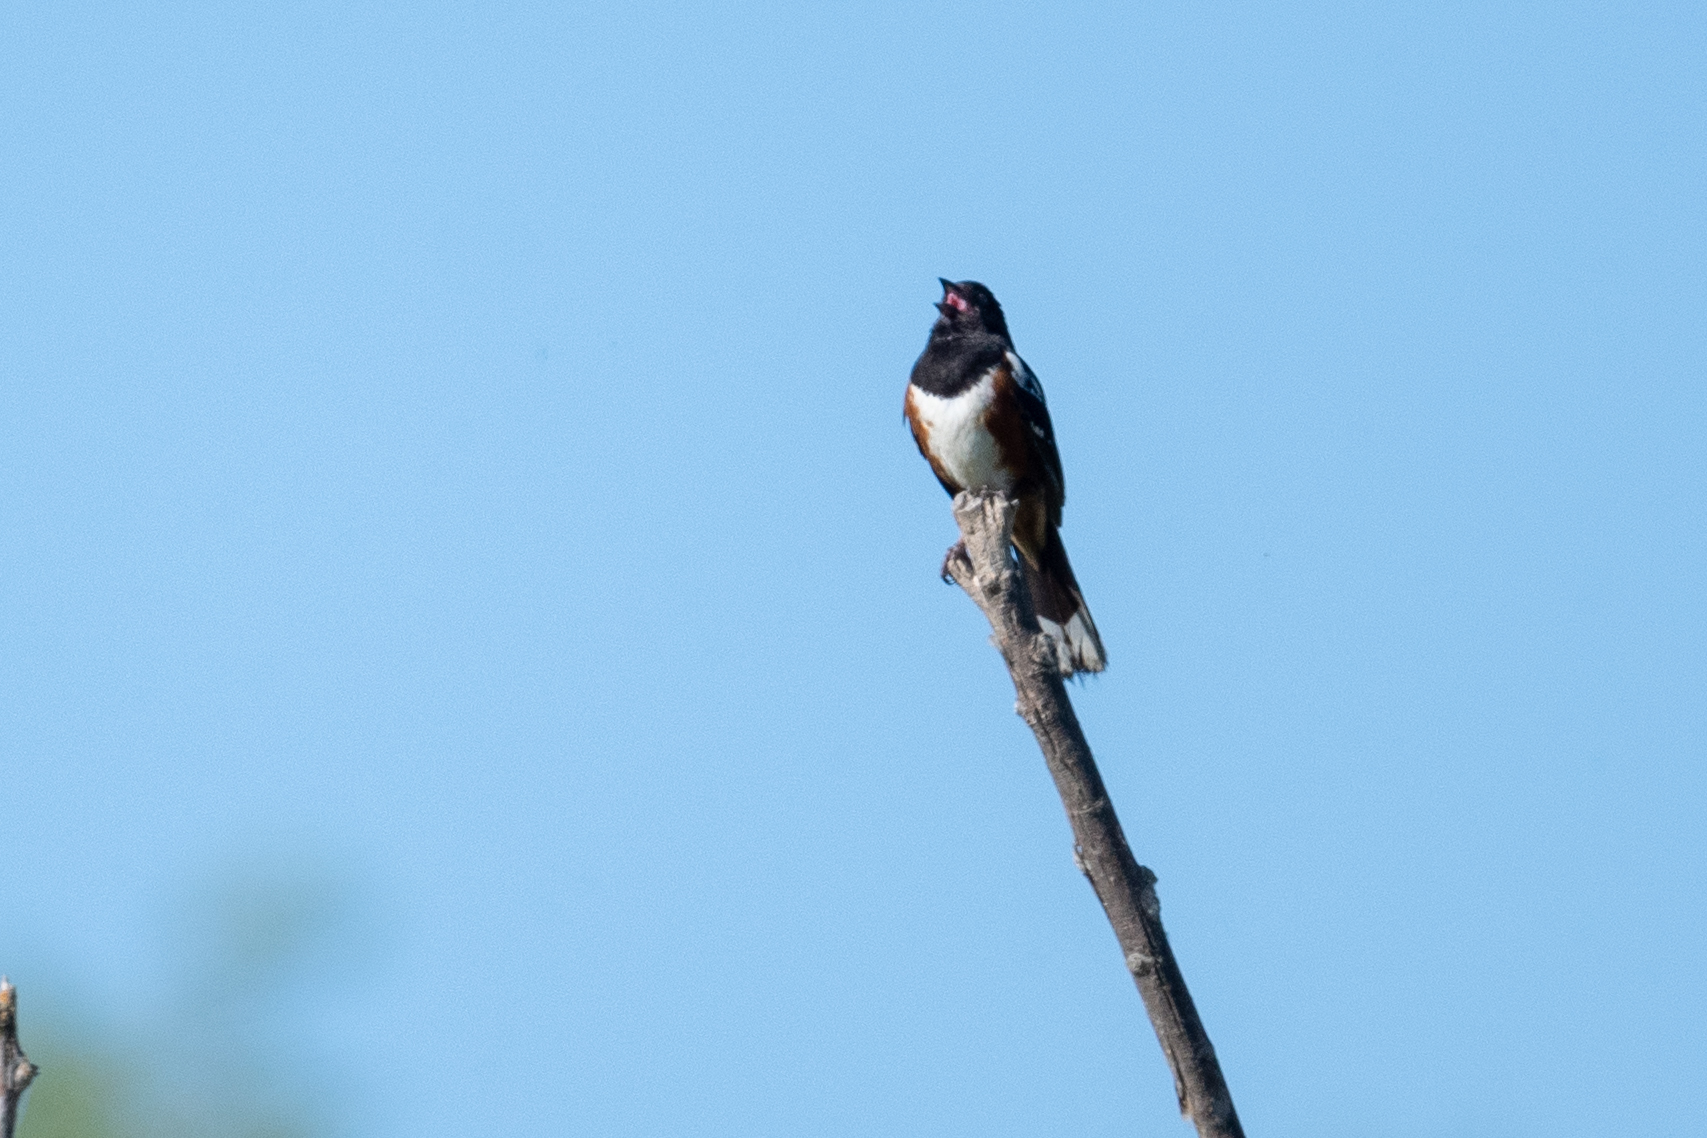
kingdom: Animalia
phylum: Chordata
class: Aves
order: Passeriformes
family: Passerellidae
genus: Pipilo
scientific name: Pipilo maculatus
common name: Spotted towhee
